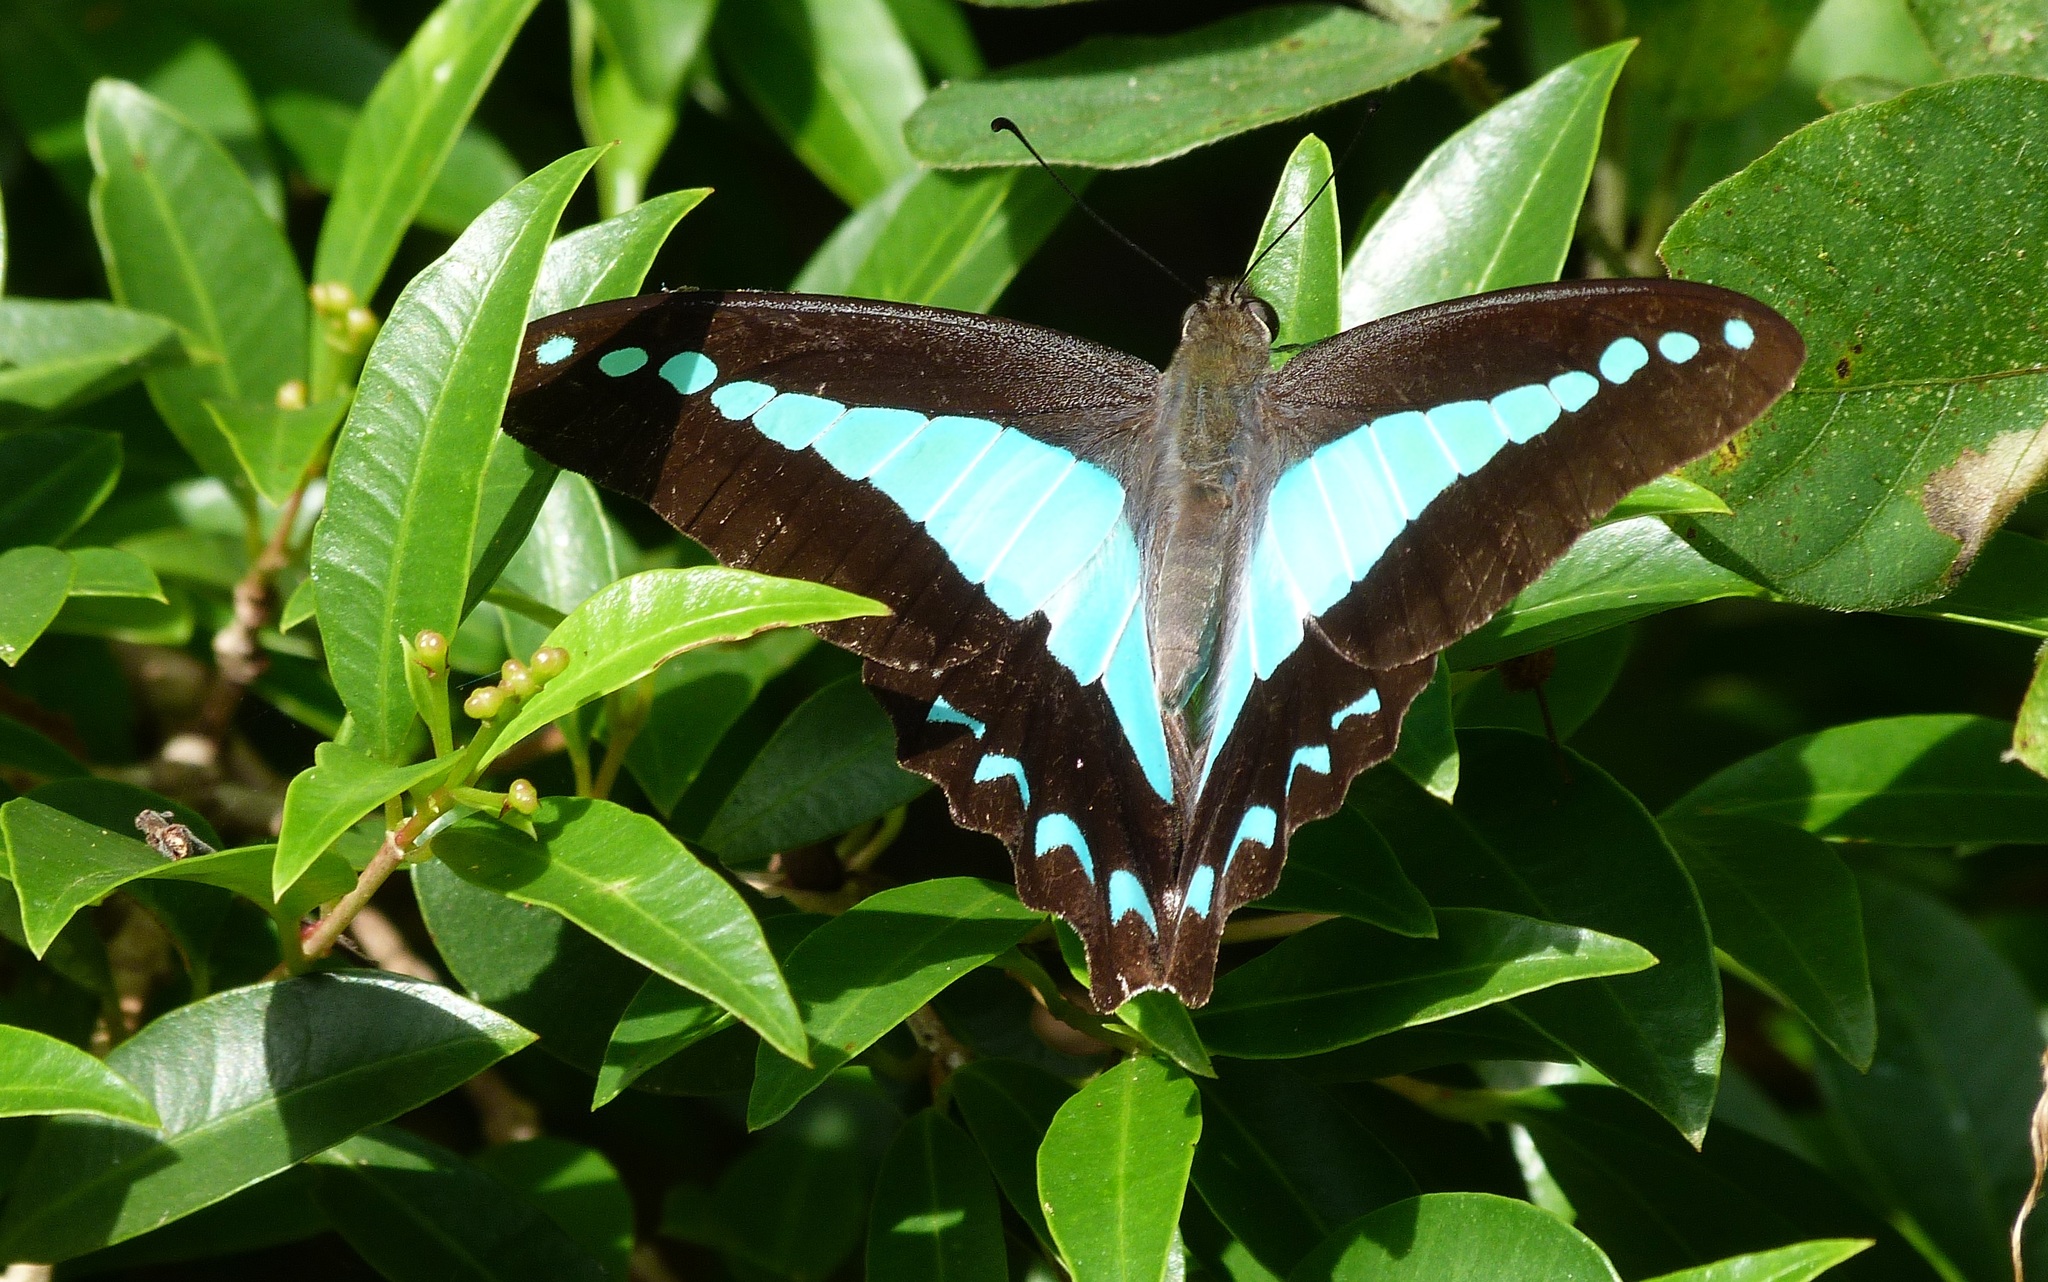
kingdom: Animalia
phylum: Arthropoda
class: Insecta
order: Lepidoptera
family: Papilionidae
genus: Graphium
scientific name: Graphium
